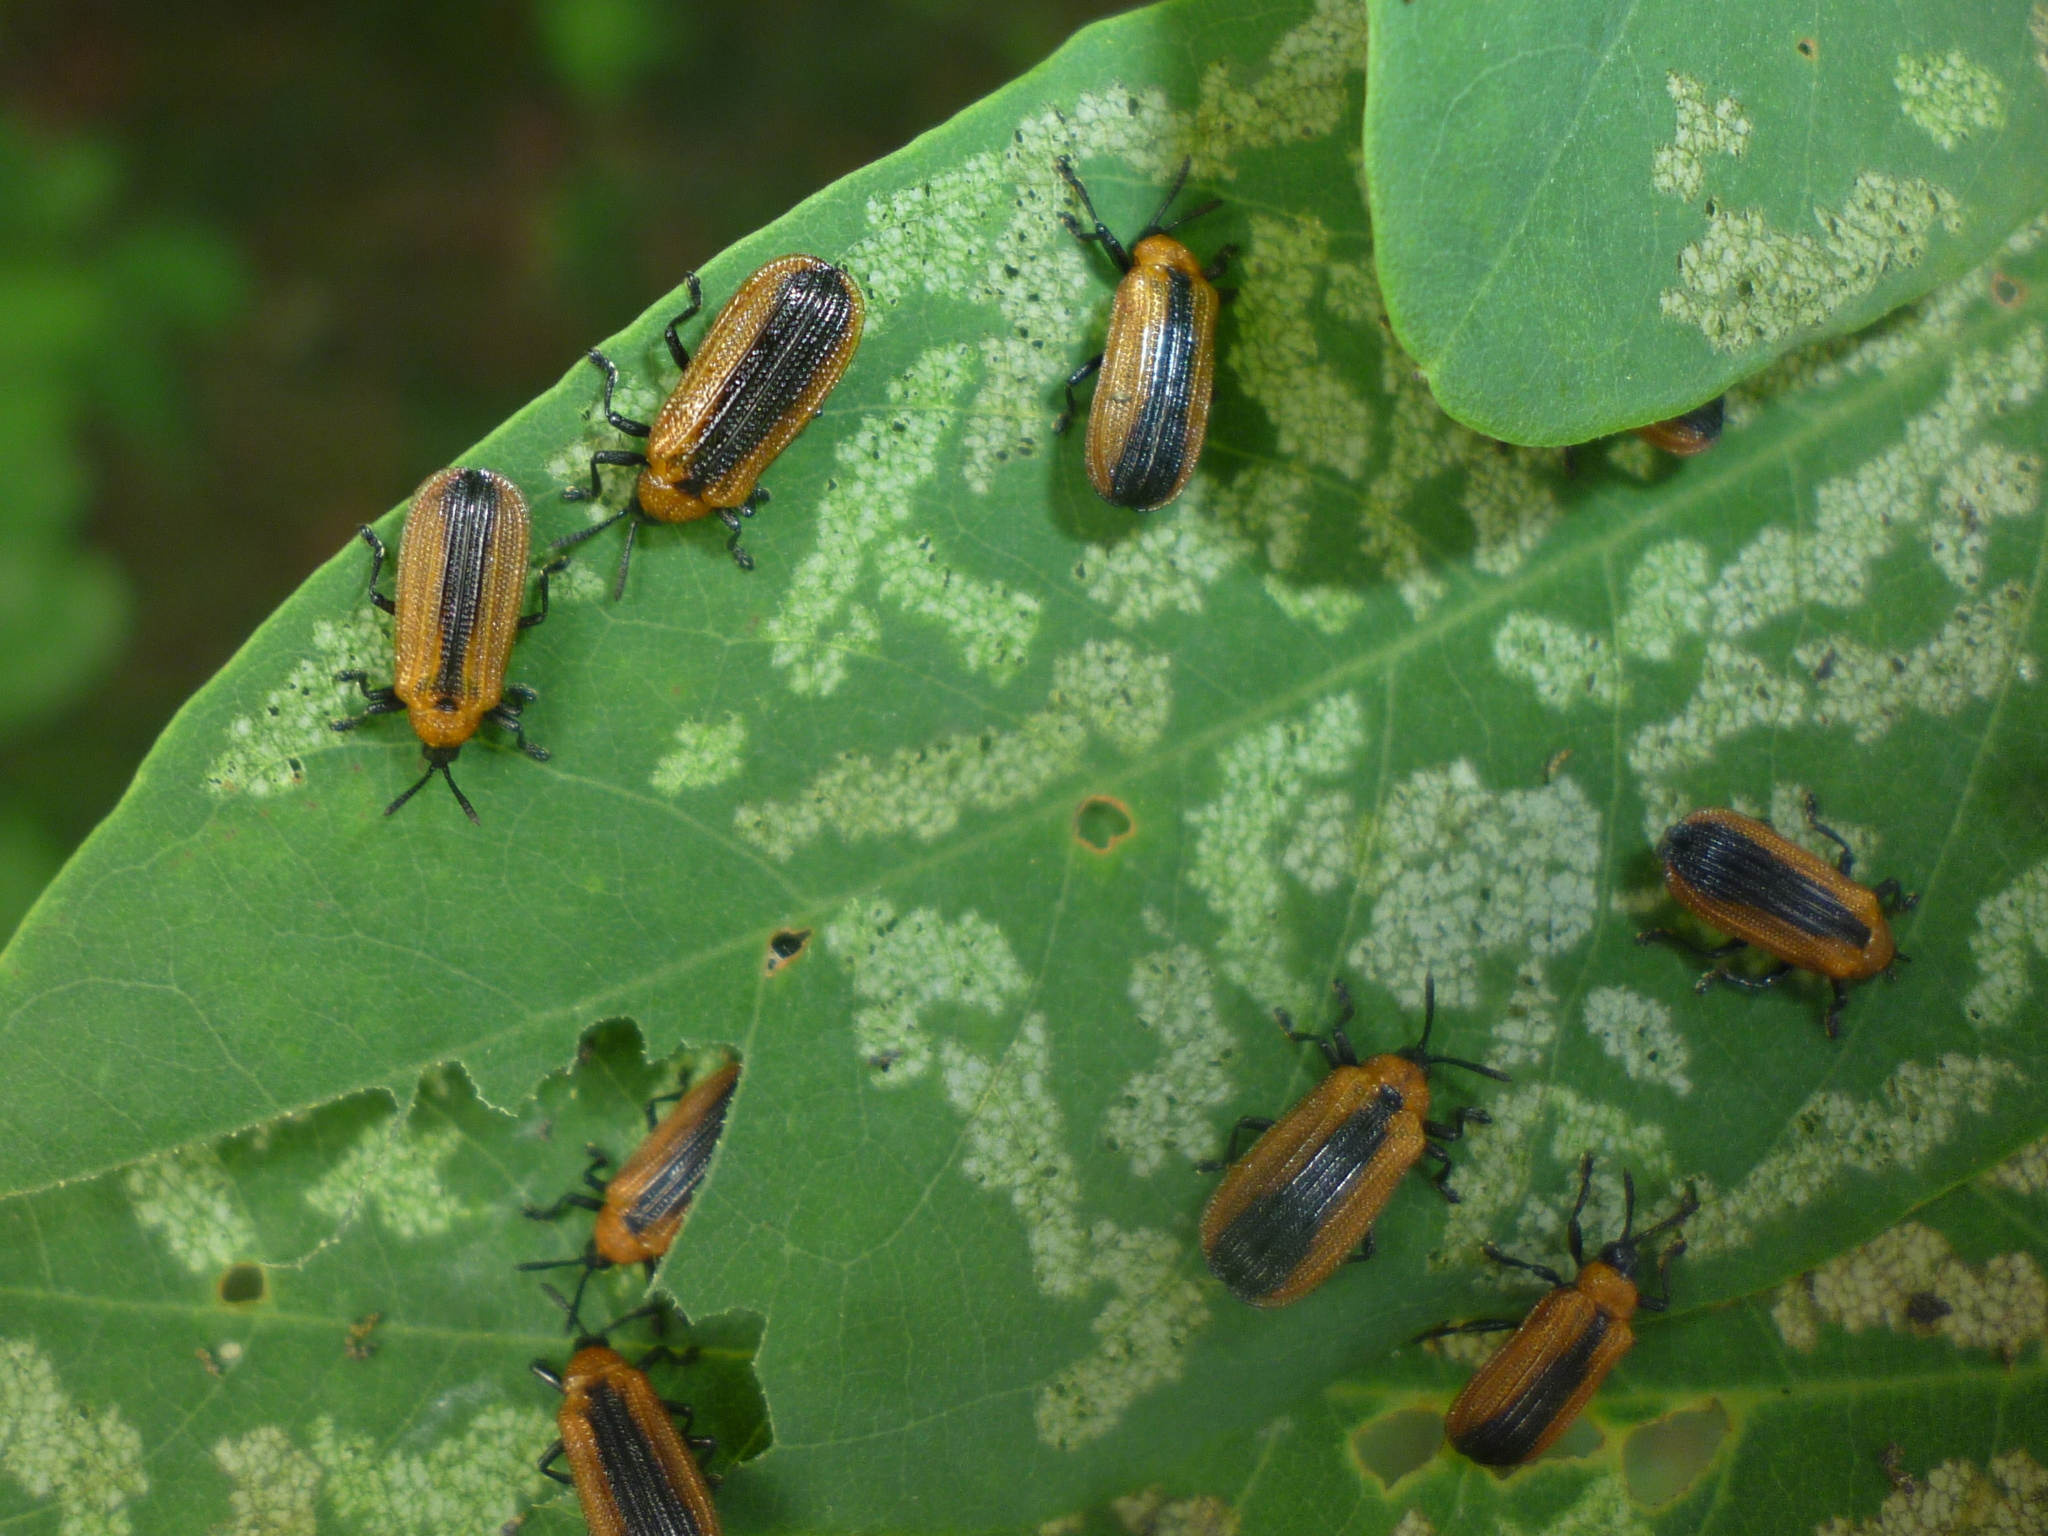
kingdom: Animalia
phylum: Arthropoda
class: Insecta
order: Coleoptera
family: Chrysomelidae
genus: Odontota
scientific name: Odontota dorsalis
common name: Locust leaf-miner beetle
